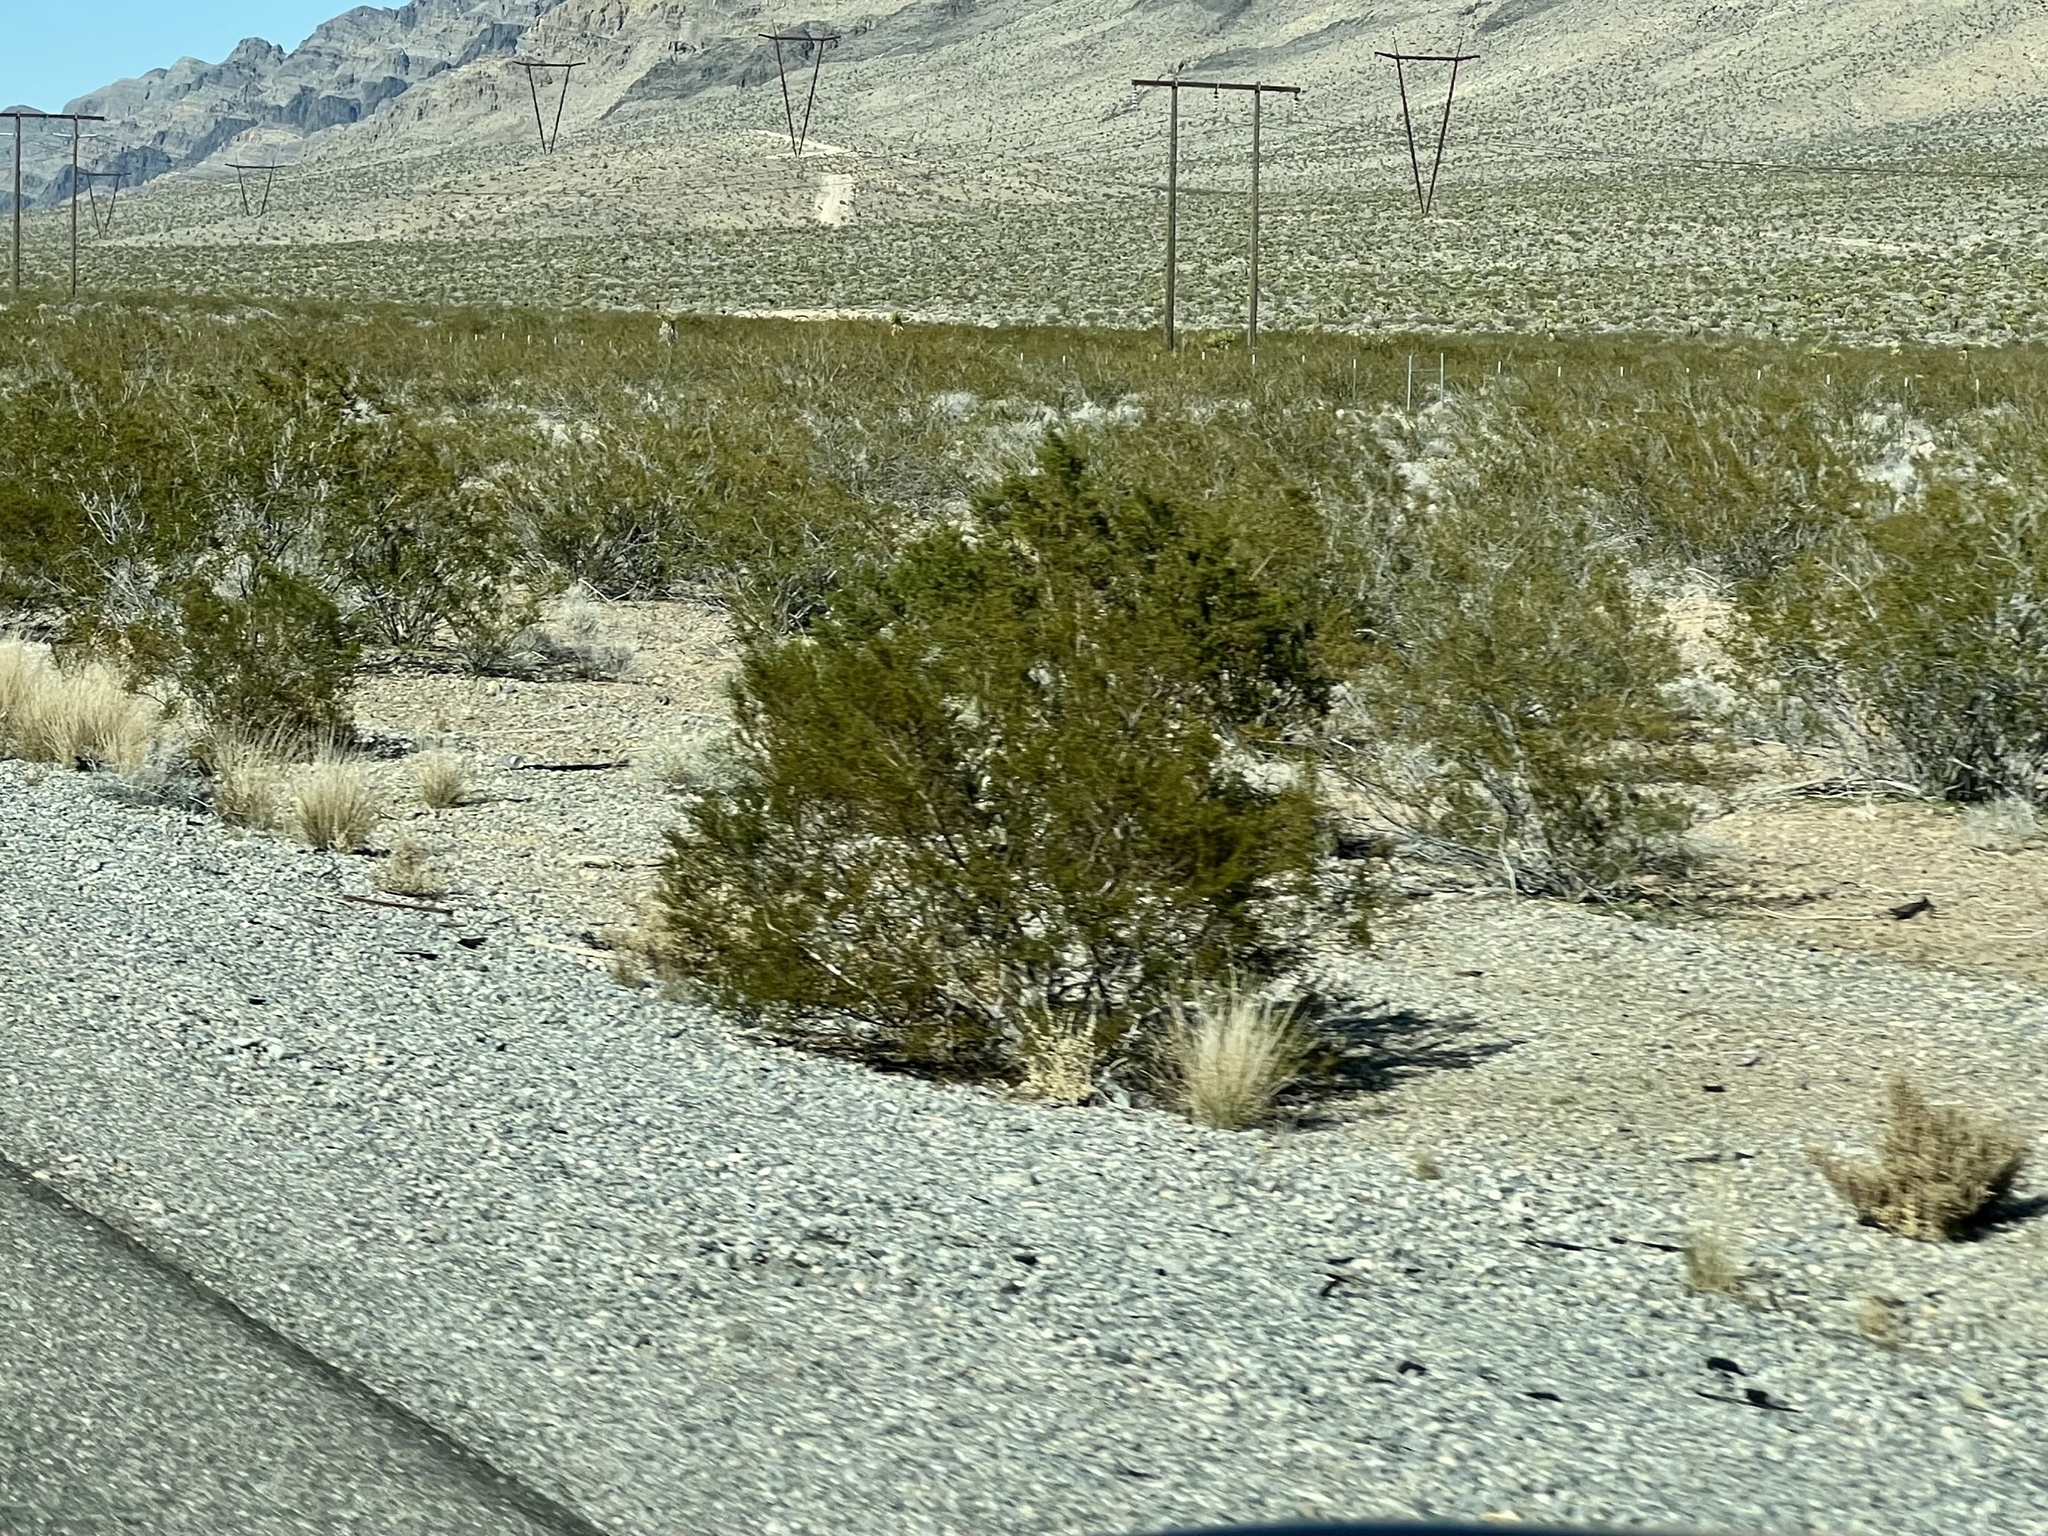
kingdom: Plantae
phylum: Tracheophyta
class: Magnoliopsida
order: Zygophyllales
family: Zygophyllaceae
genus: Larrea
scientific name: Larrea tridentata
